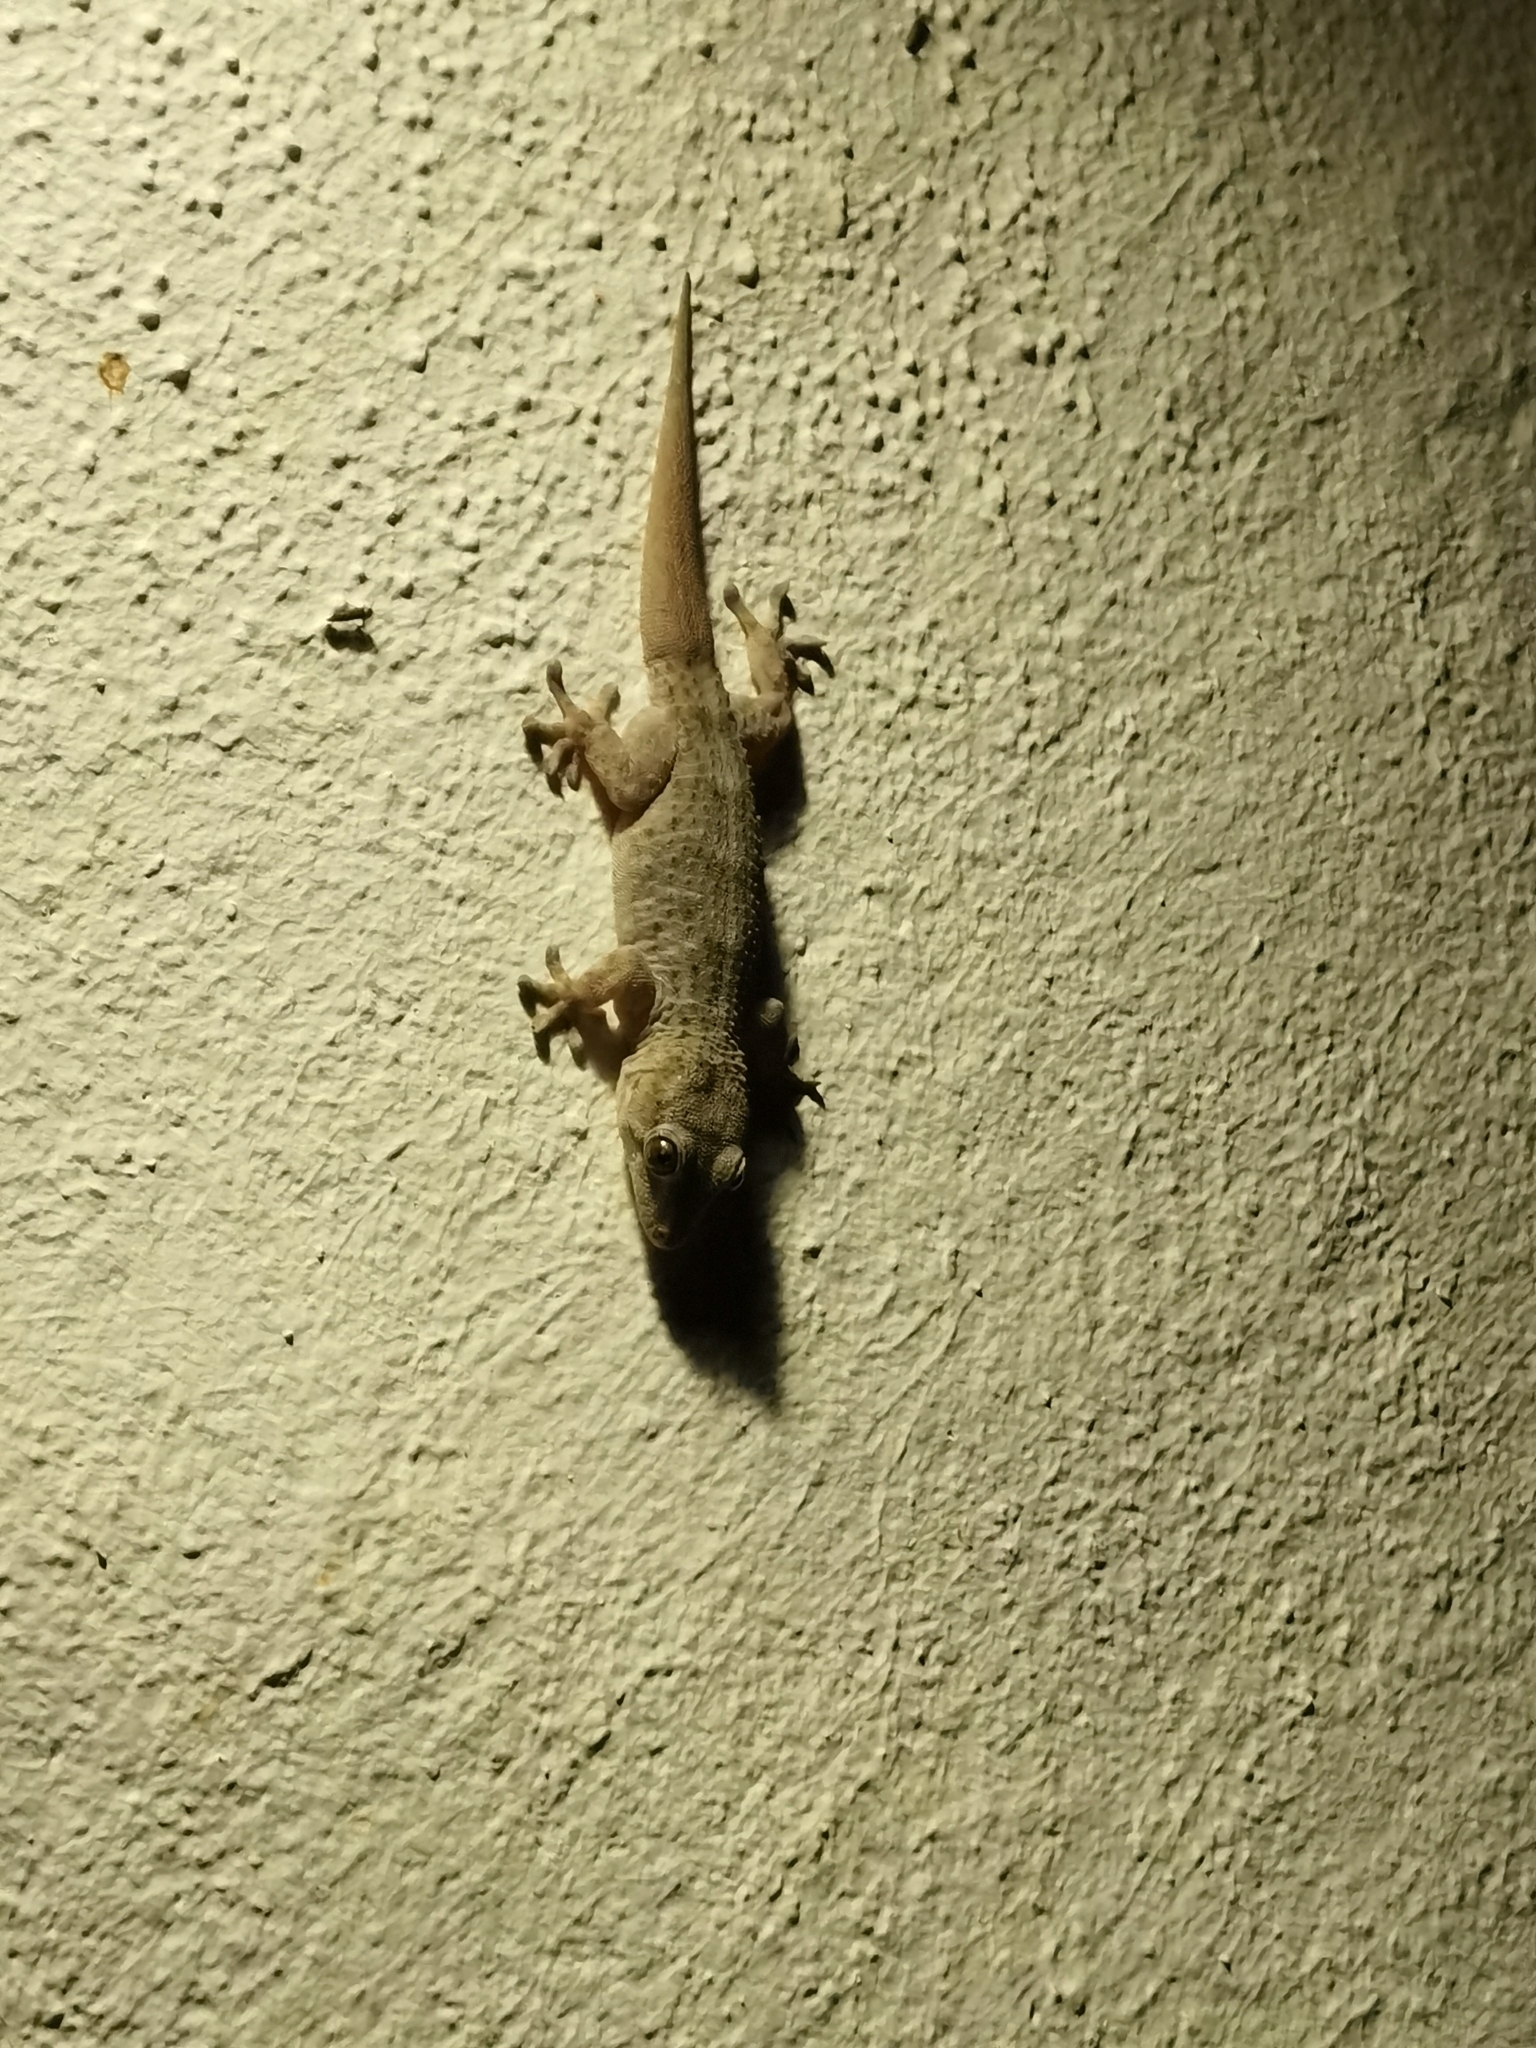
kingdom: Animalia
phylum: Chordata
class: Squamata
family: Phyllodactylidae
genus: Tarentola
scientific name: Tarentola delalandii
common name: Tenerife wall gecko
